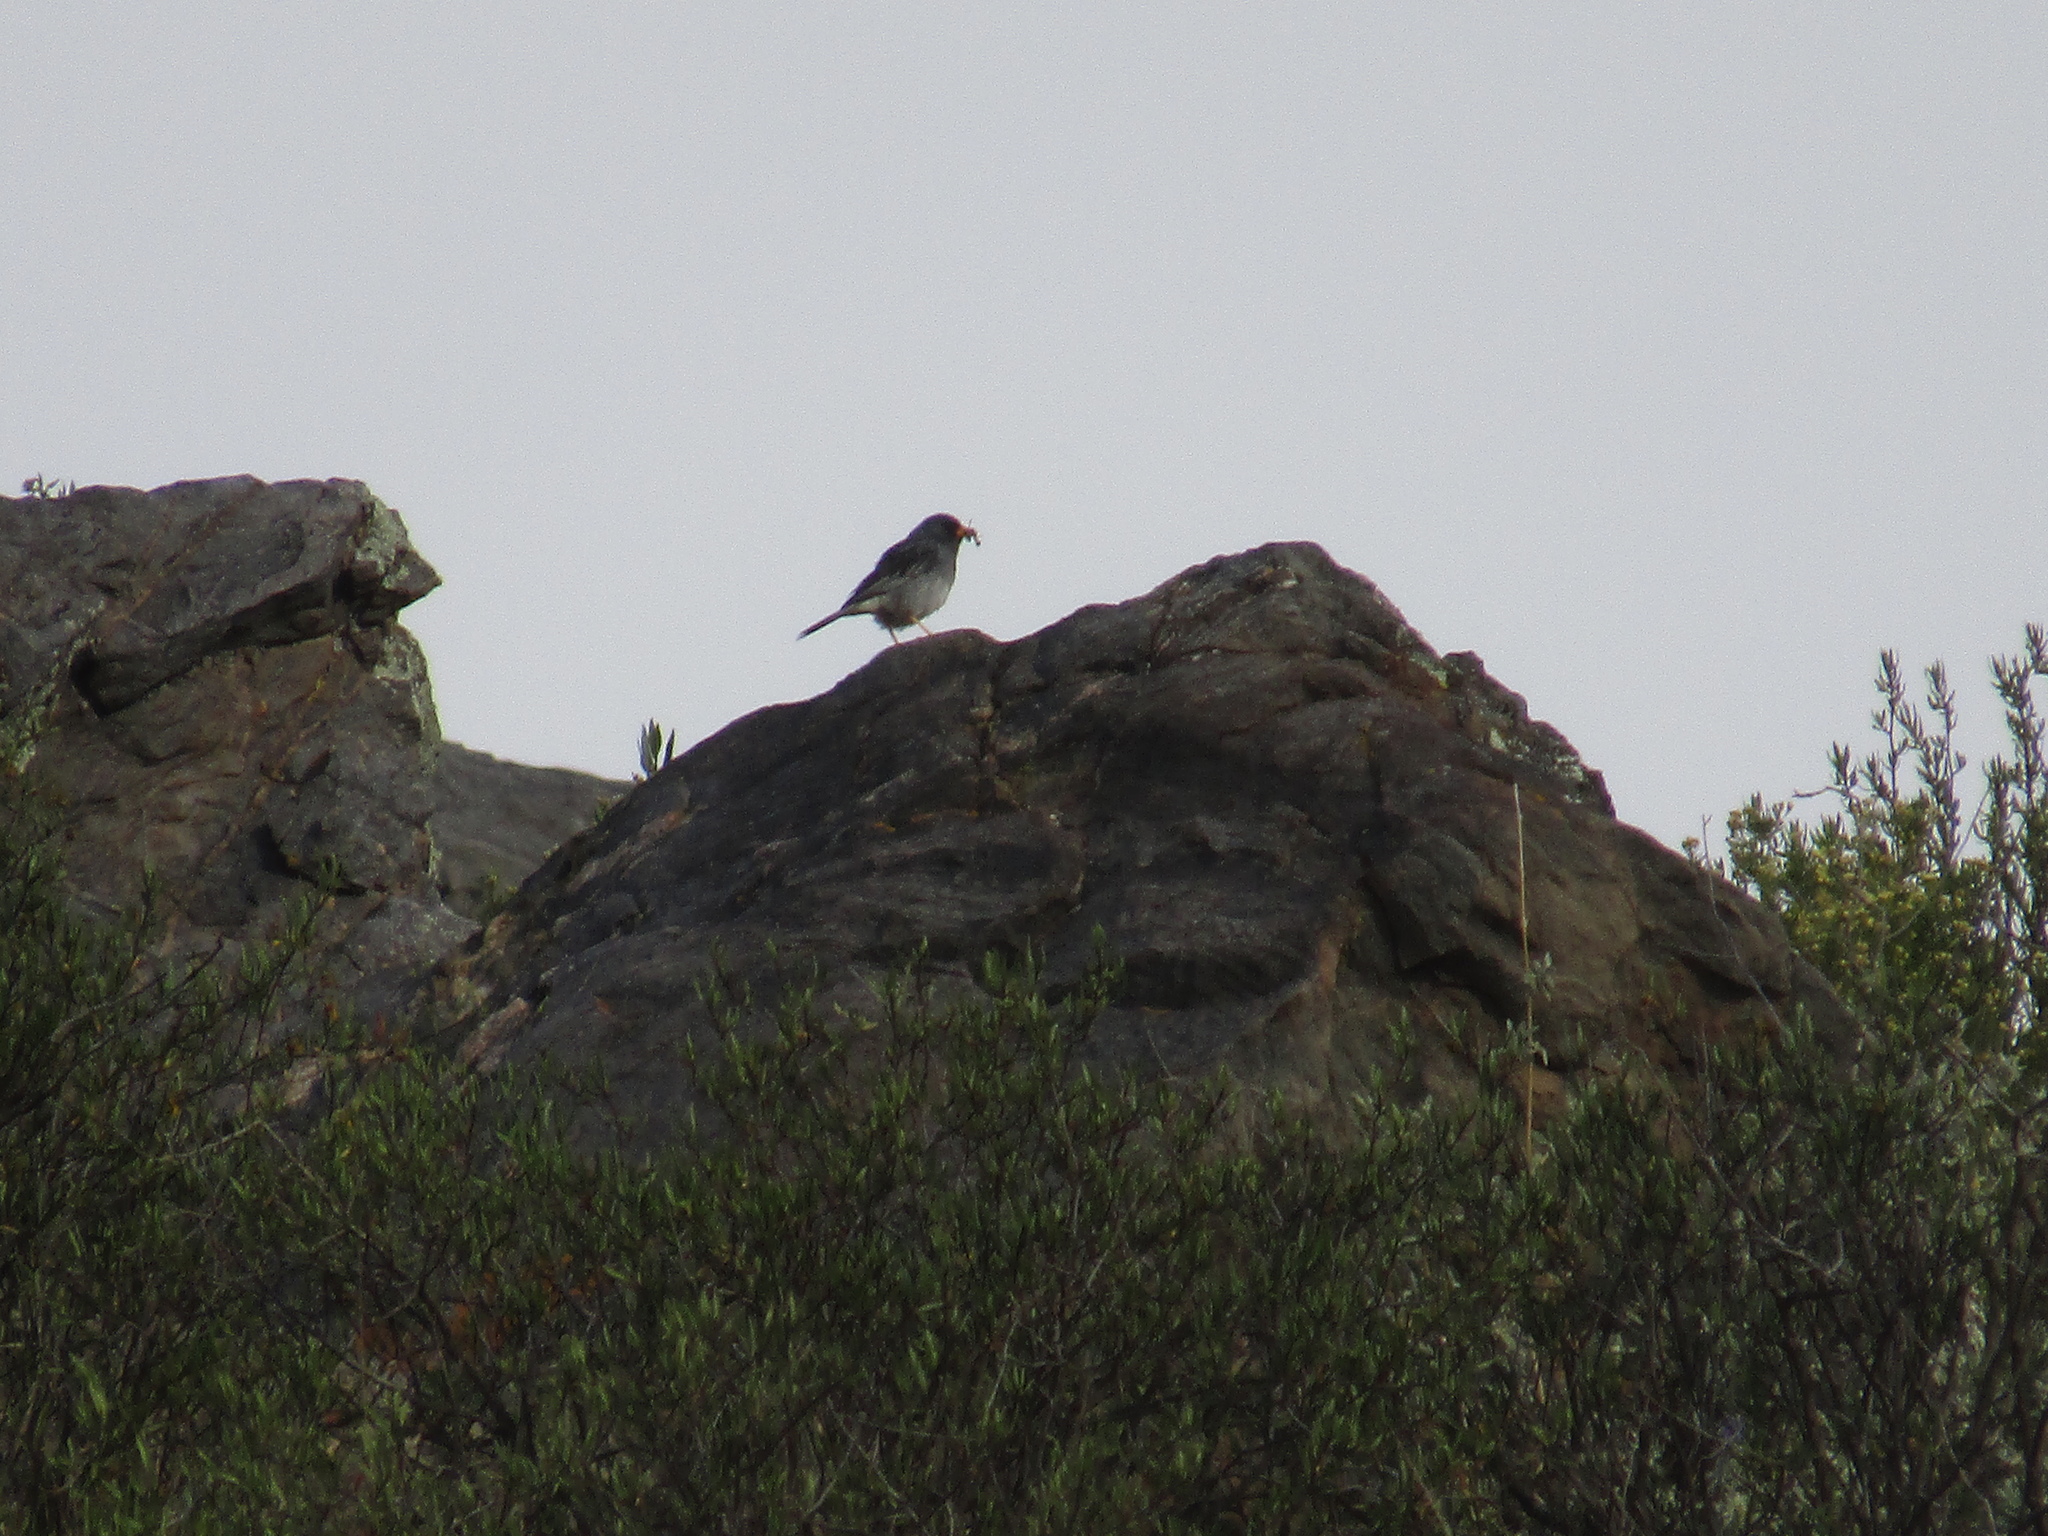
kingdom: Animalia
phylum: Chordata
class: Aves
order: Passeriformes
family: Thraupidae
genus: Rhopospina
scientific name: Rhopospina fruticeti
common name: Mourning sierra finch
